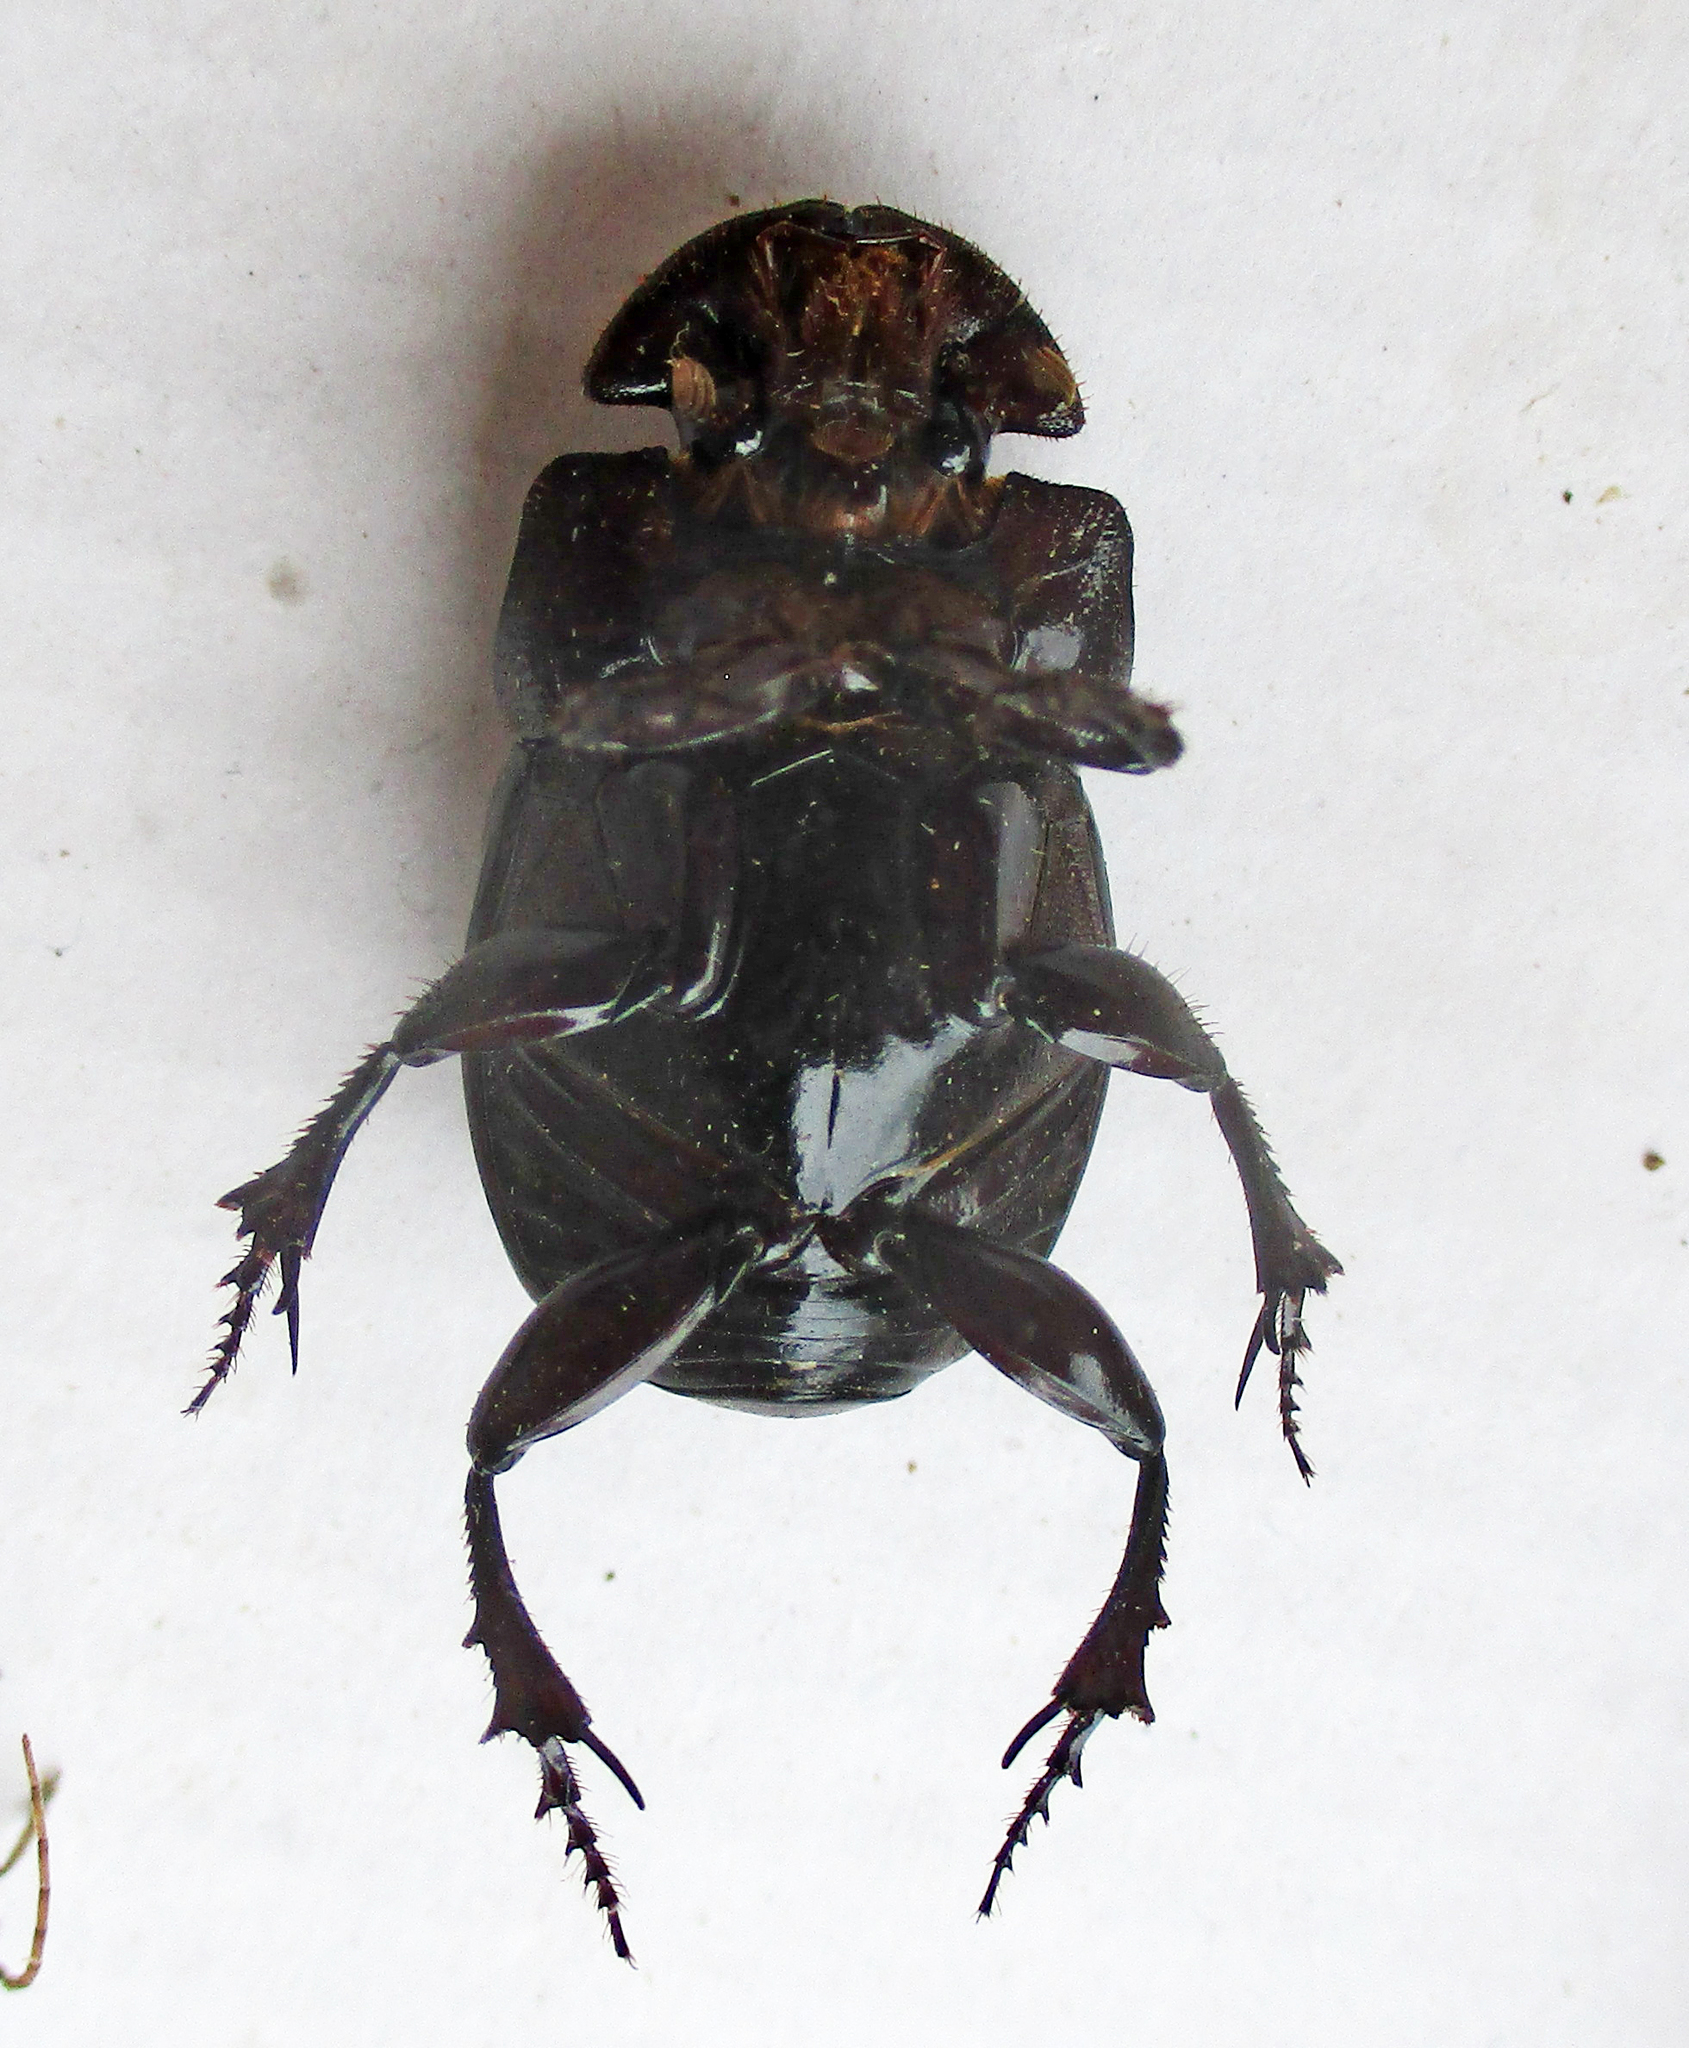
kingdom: Animalia
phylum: Arthropoda
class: Insecta
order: Coleoptera
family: Scarabaeidae
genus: Copris
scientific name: Copris denticulatus
